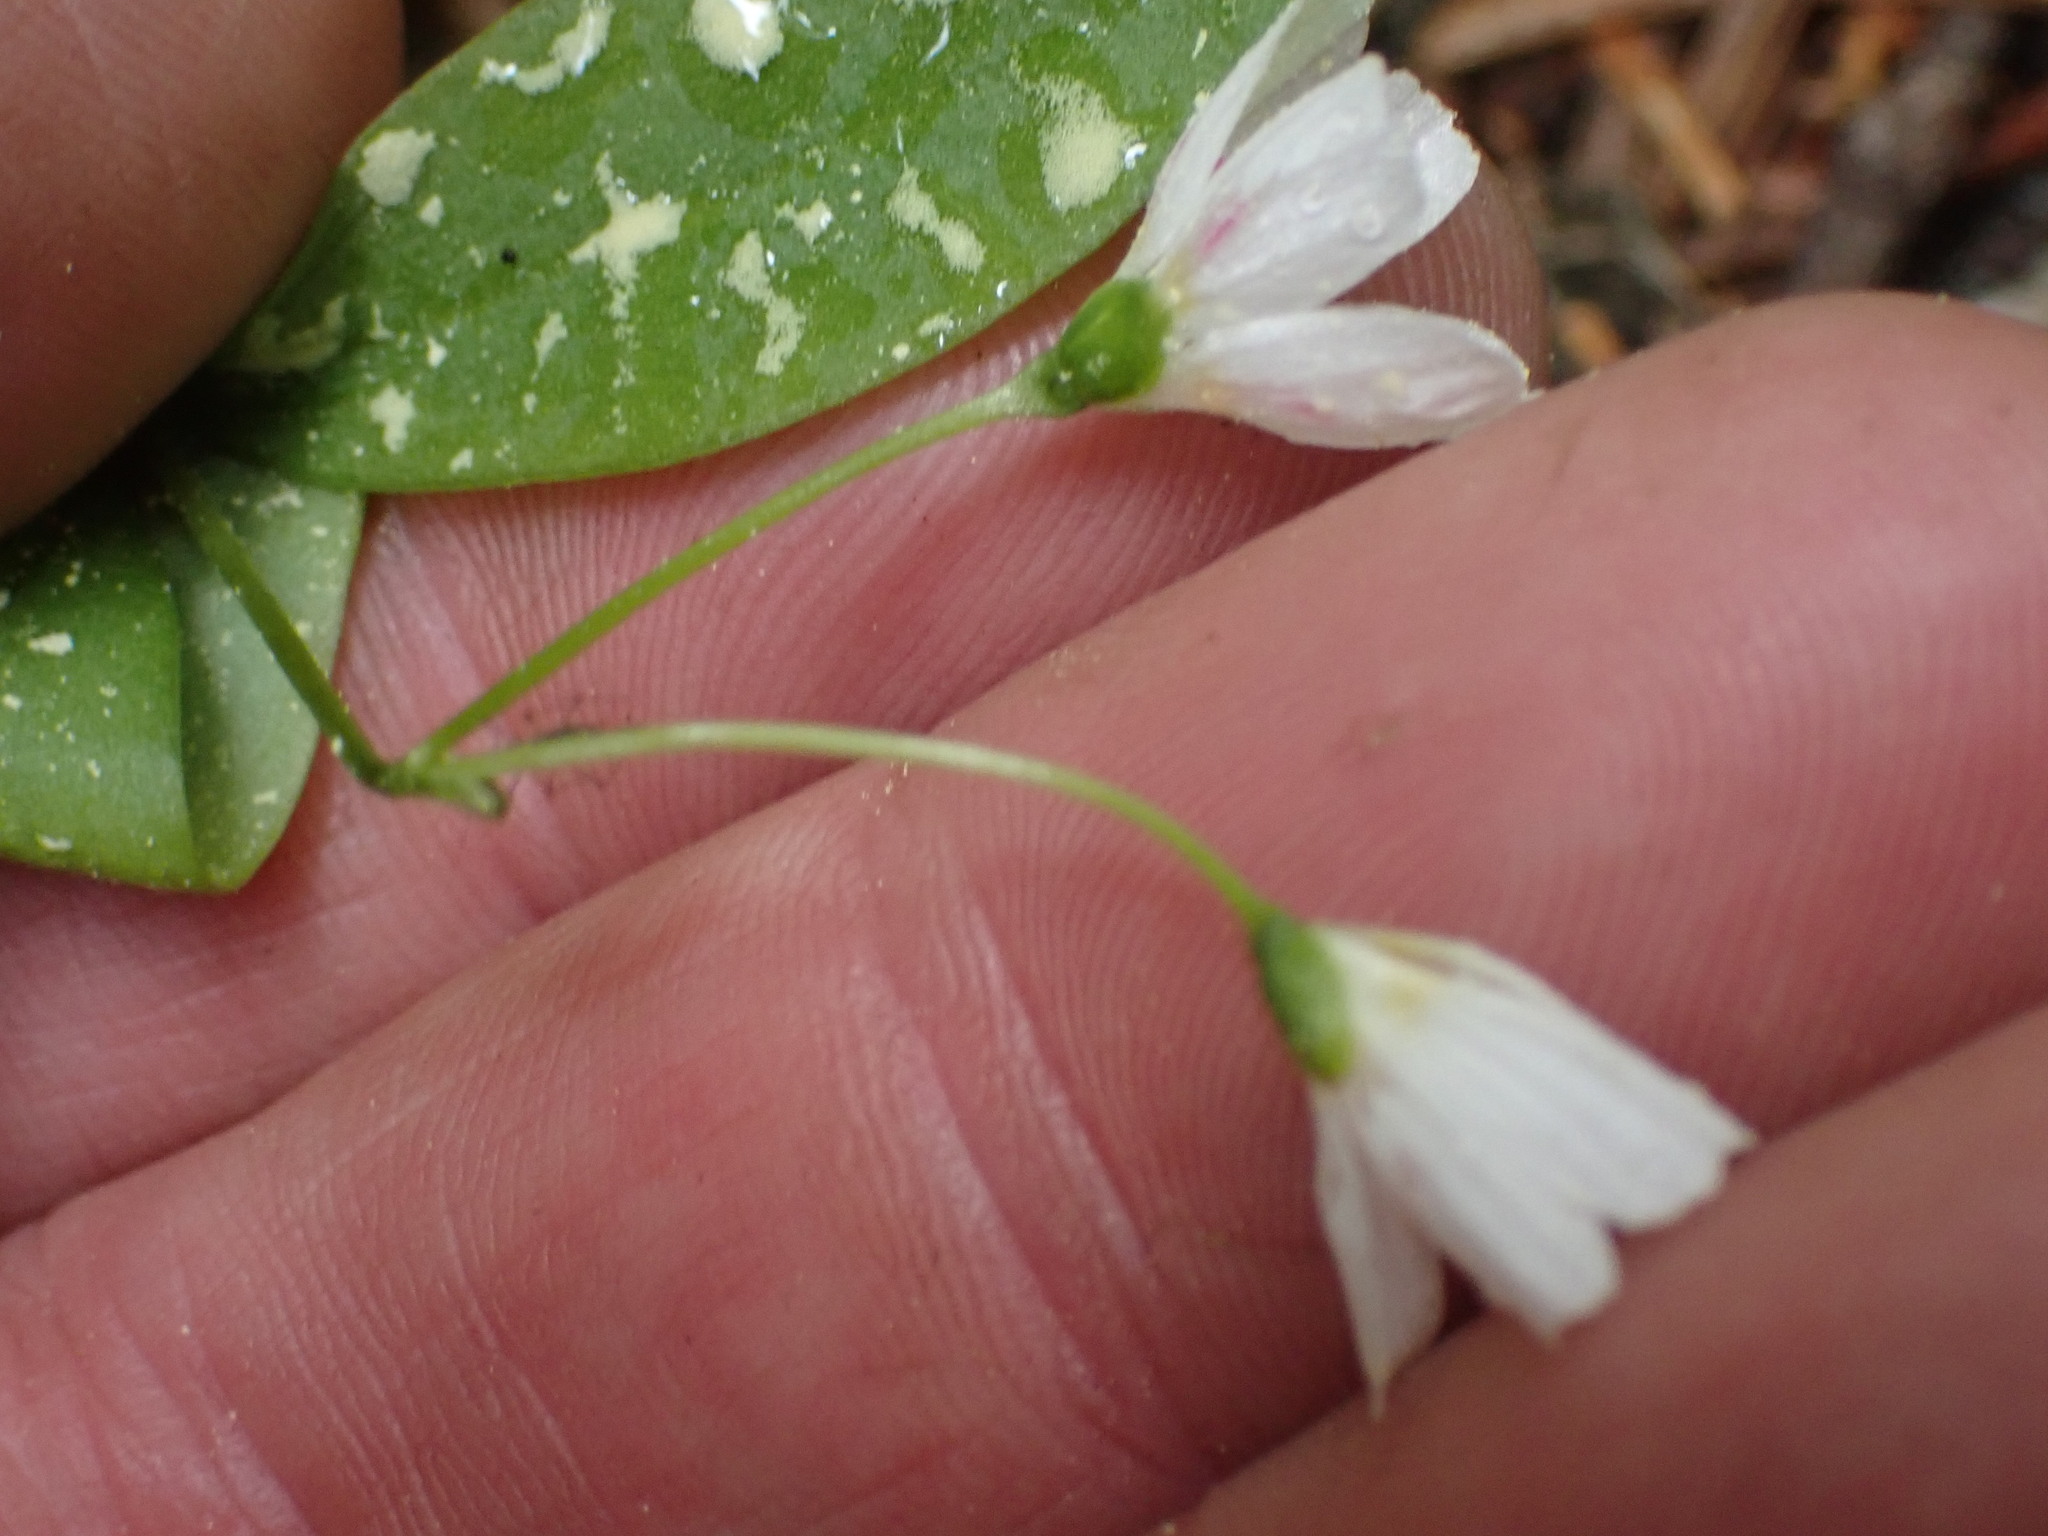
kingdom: Plantae
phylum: Tracheophyta
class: Magnoliopsida
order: Caryophyllales
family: Montiaceae
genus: Claytonia
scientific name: Claytonia lanceolata
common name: Western spring-beauty
